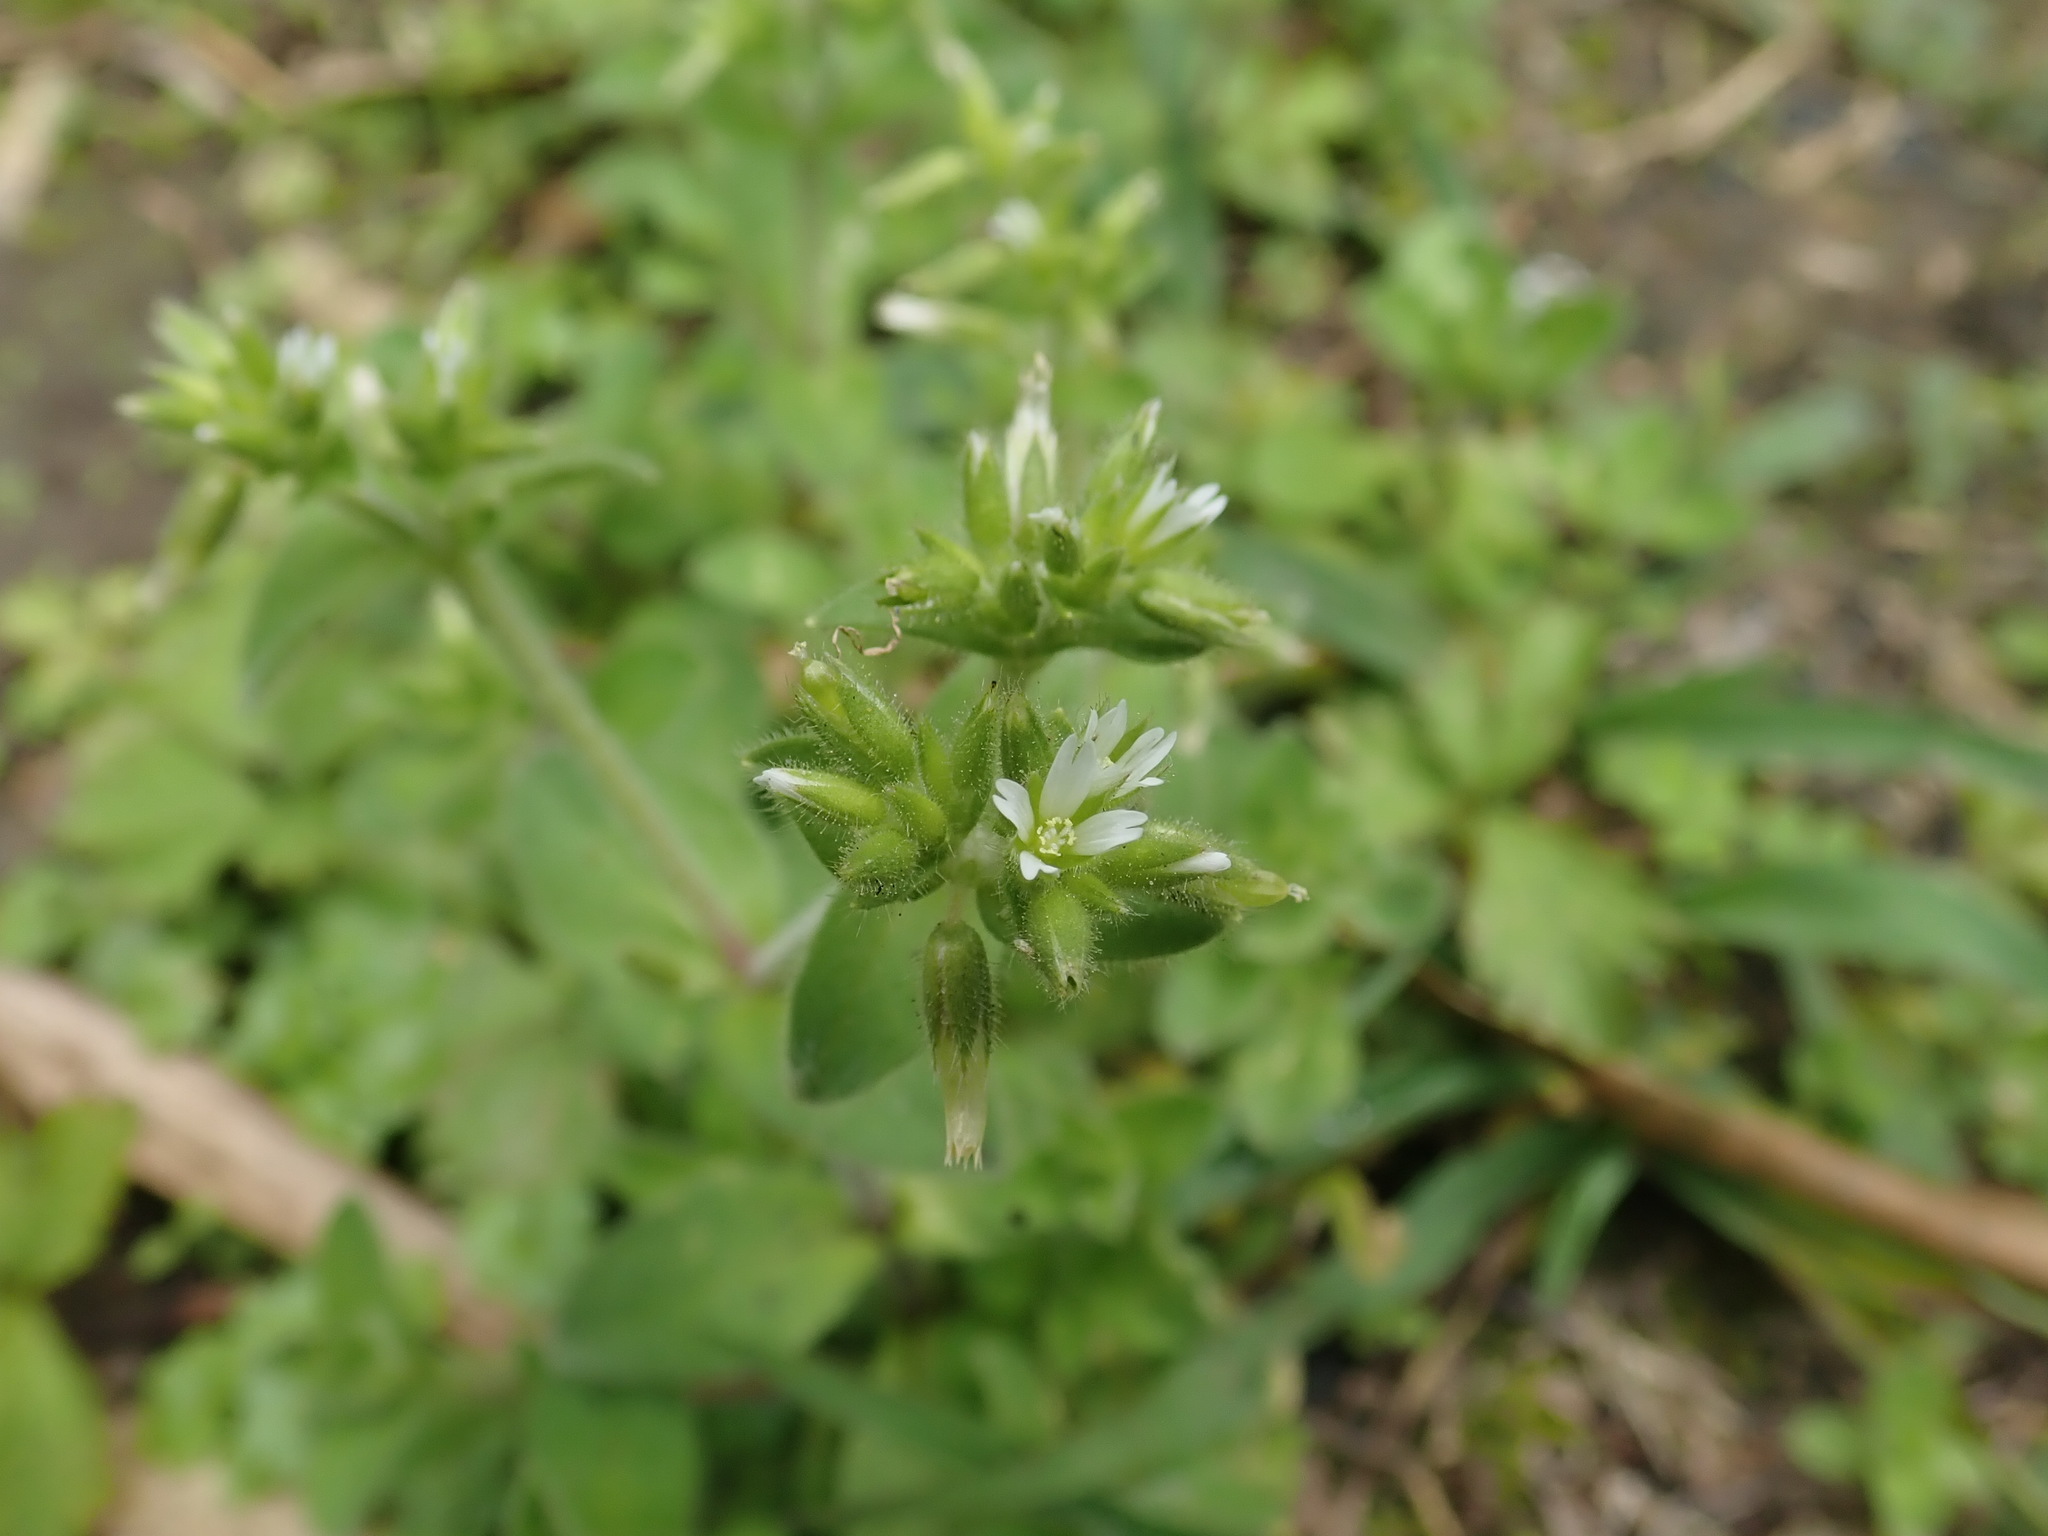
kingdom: Plantae
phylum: Tracheophyta
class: Magnoliopsida
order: Caryophyllales
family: Caryophyllaceae
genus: Cerastium
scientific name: Cerastium glomeratum
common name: Sticky chickweed
